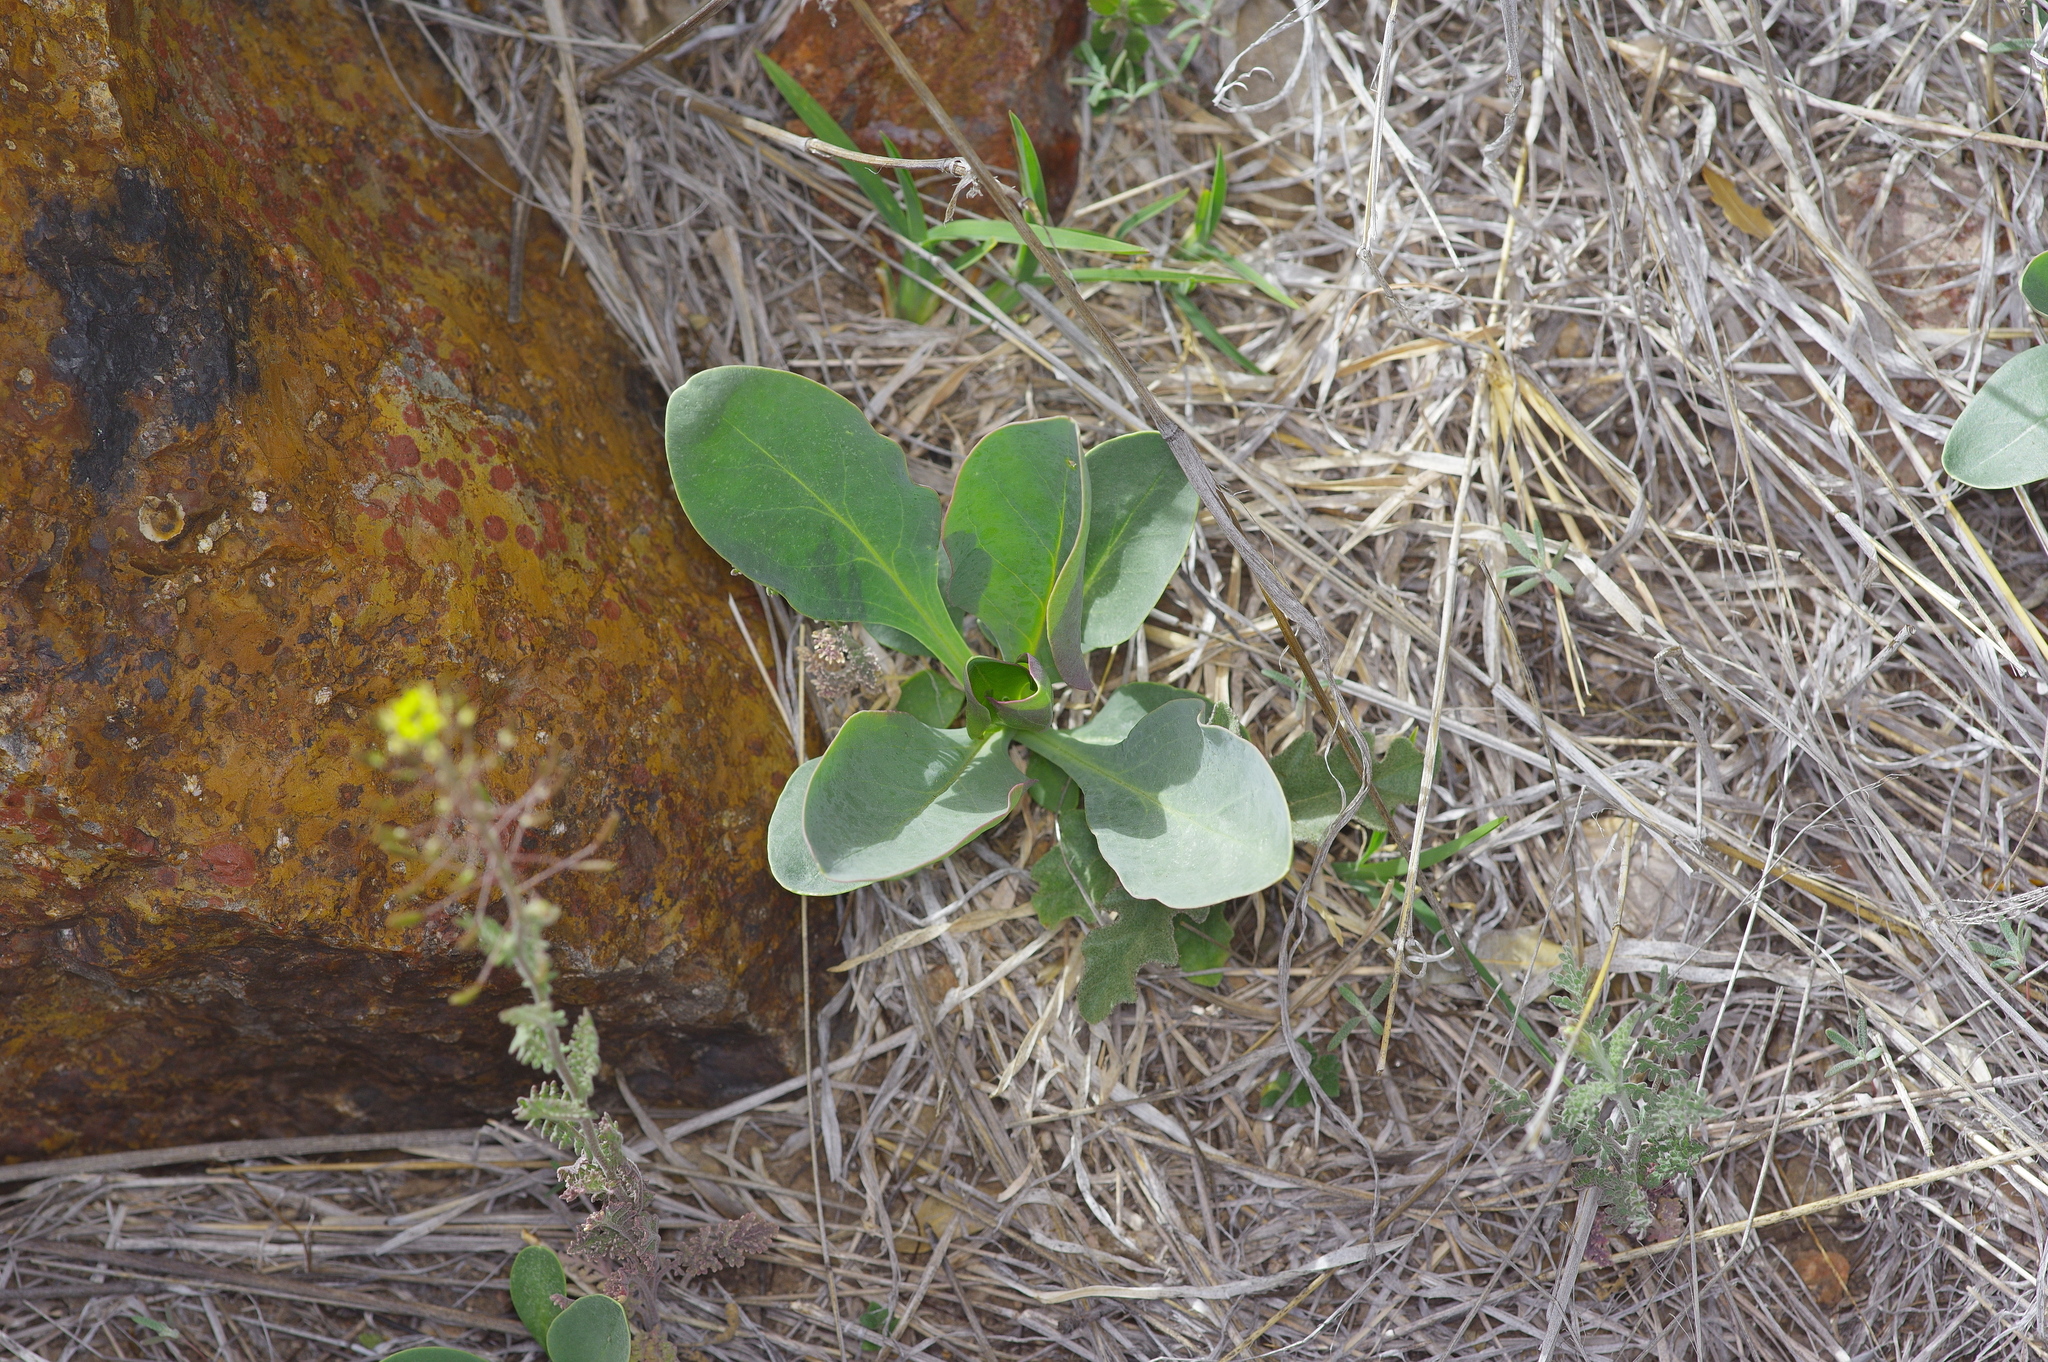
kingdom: Plantae
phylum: Tracheophyta
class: Magnoliopsida
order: Lamiales
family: Plantaginaceae
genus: Penstemon
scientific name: Penstemon wrightii
